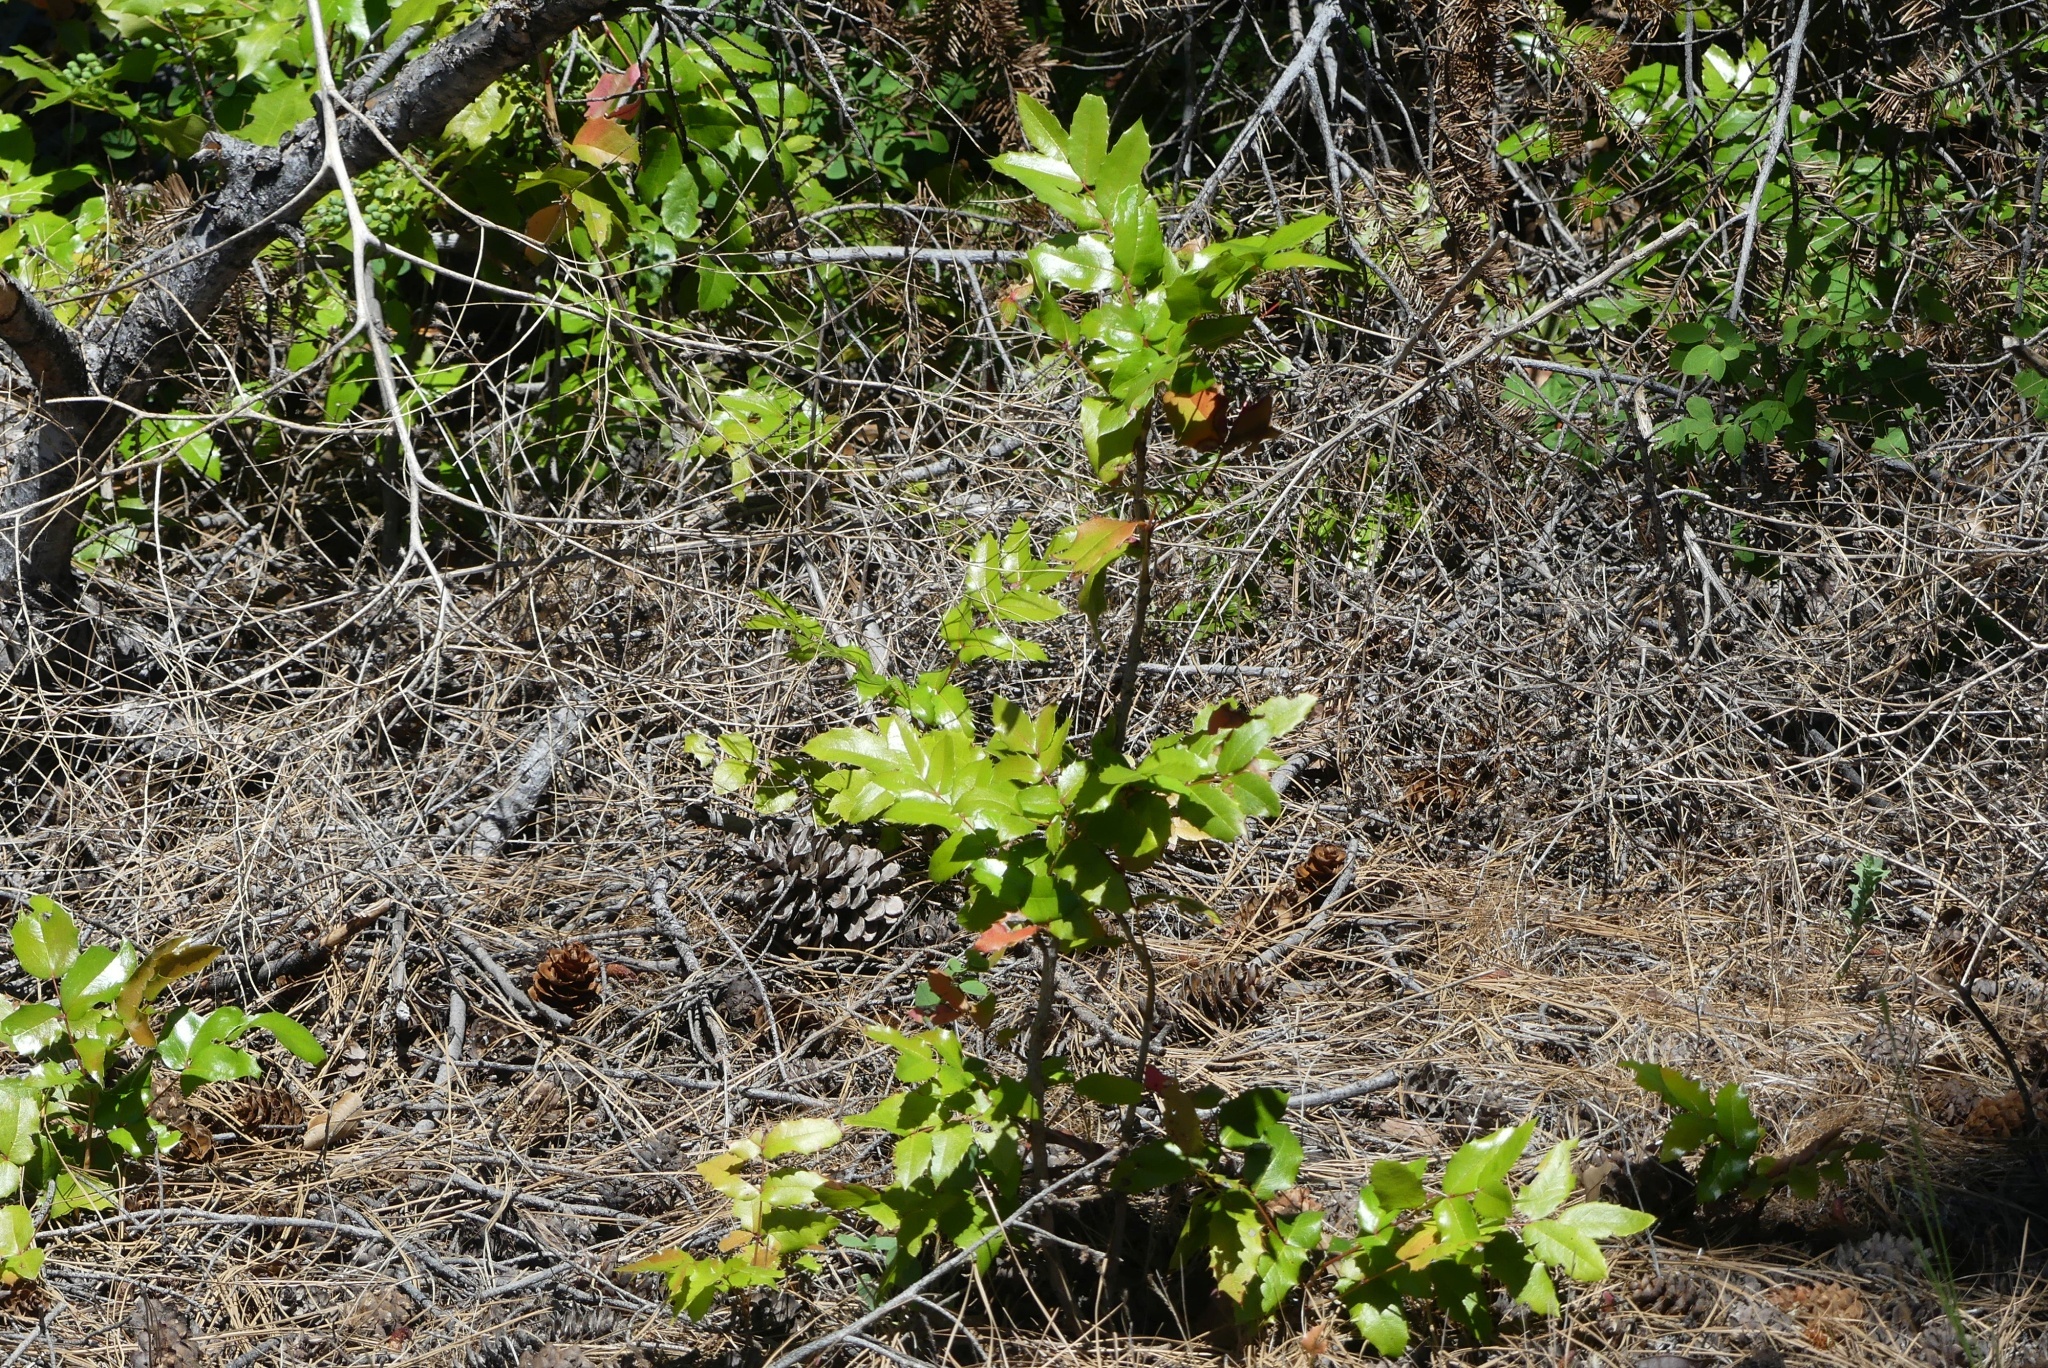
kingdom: Plantae
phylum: Tracheophyta
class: Magnoliopsida
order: Ranunculales
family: Berberidaceae
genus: Mahonia
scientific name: Mahonia aquifolium
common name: Oregon-grape
